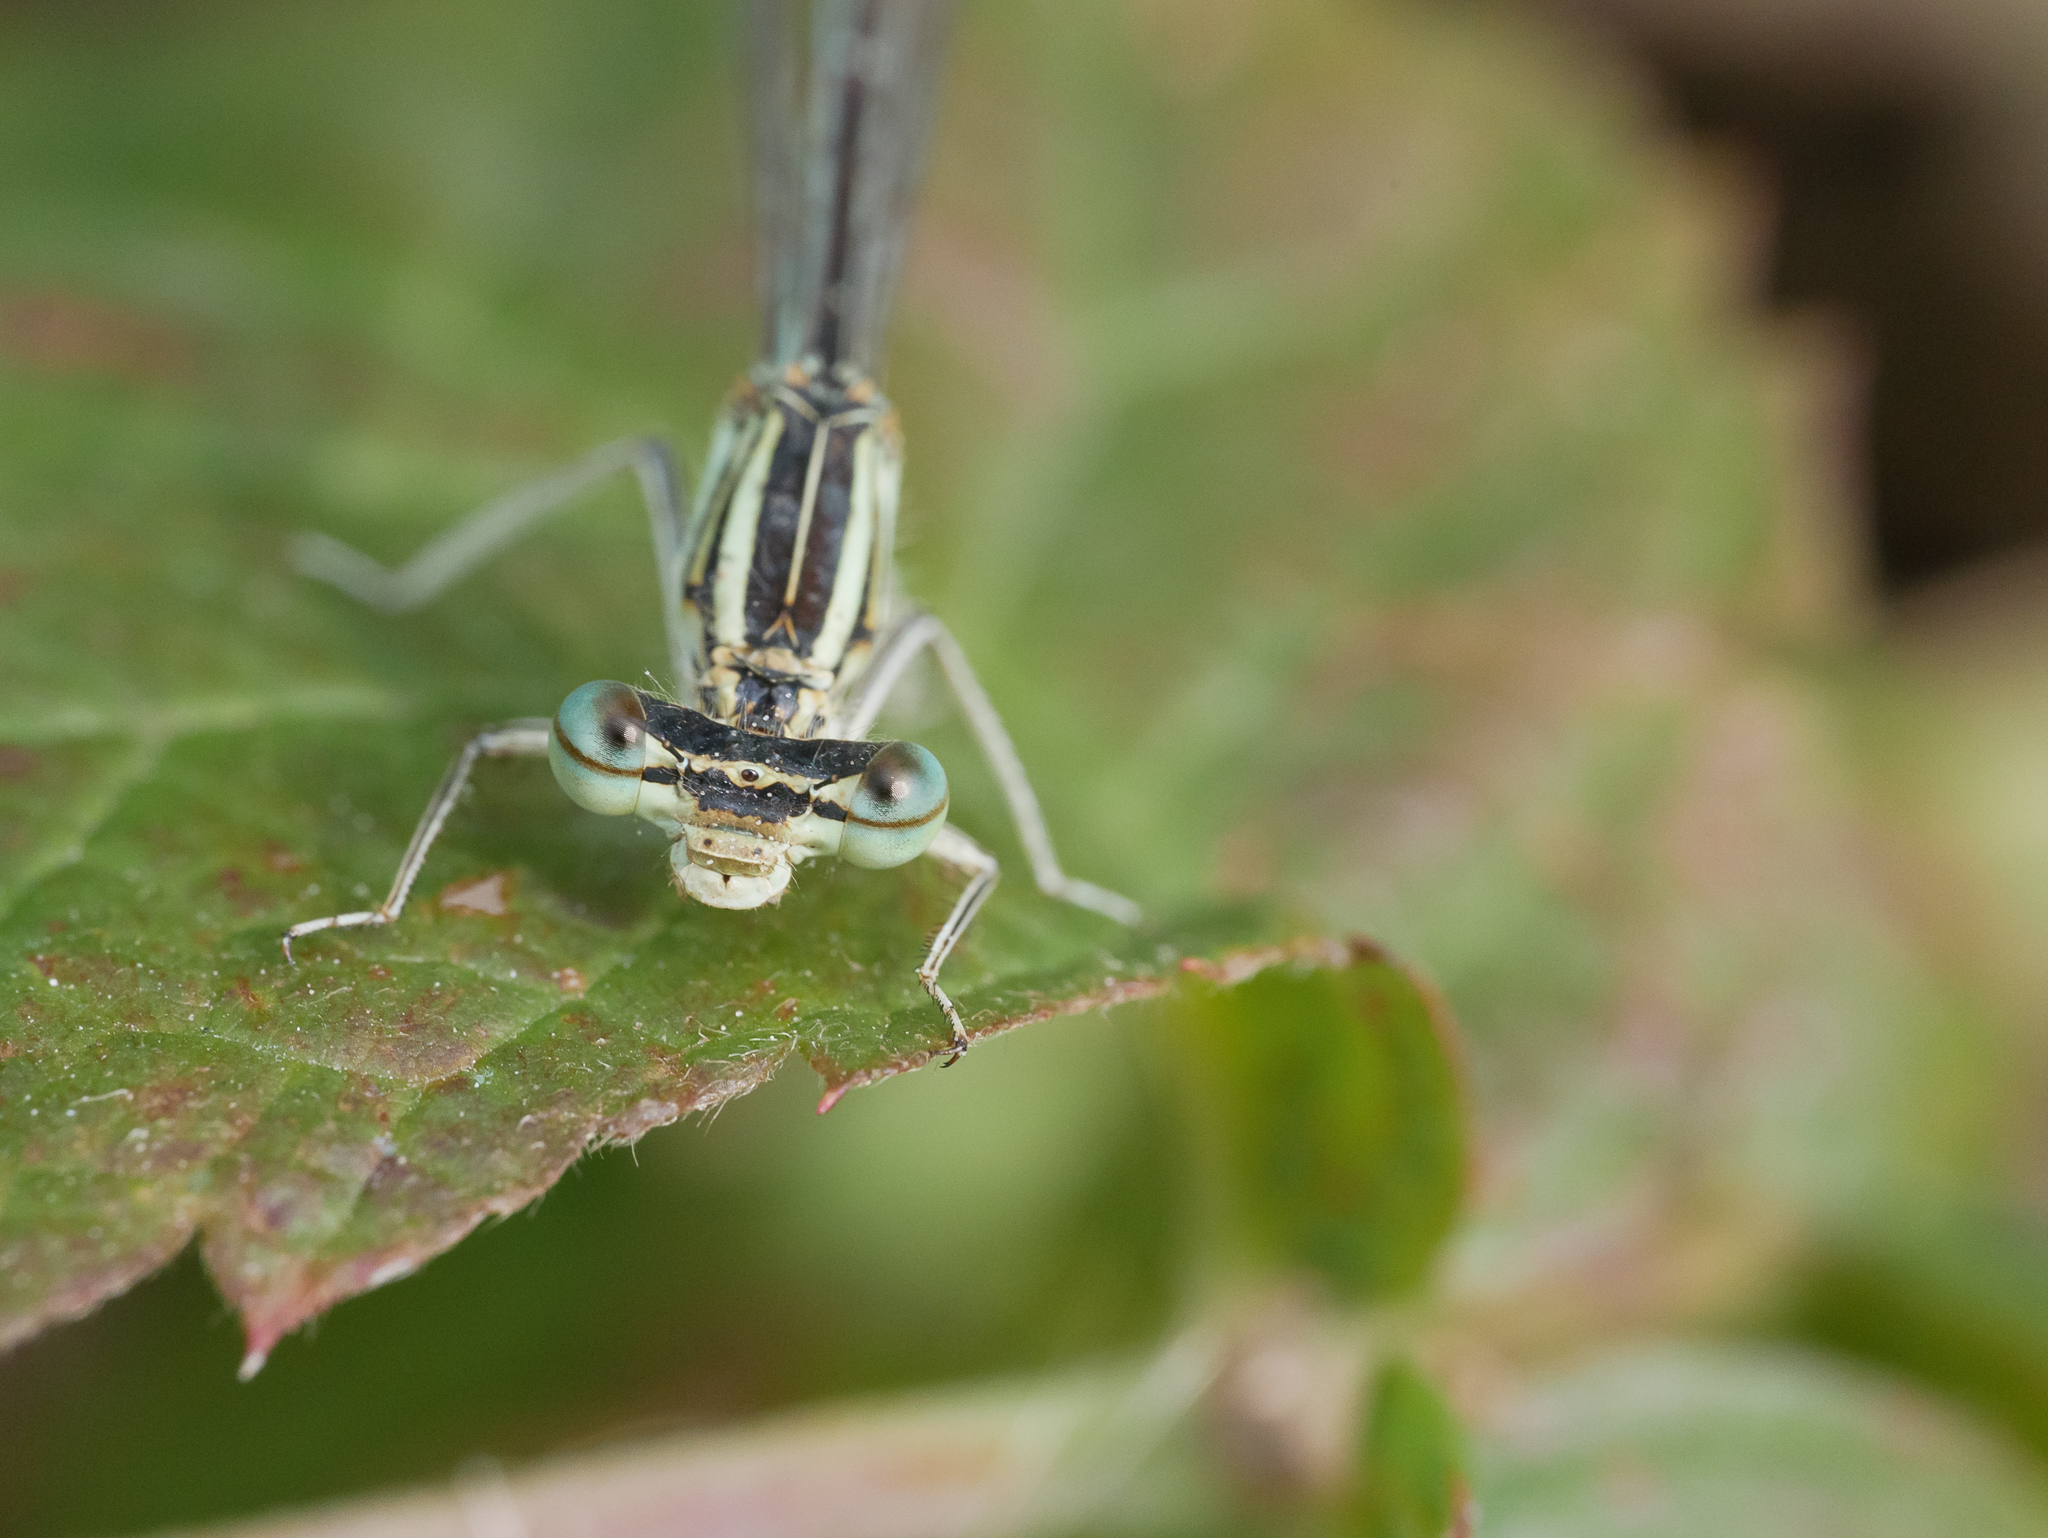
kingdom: Animalia
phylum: Arthropoda
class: Insecta
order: Odonata
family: Platycnemididae
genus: Platycnemis
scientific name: Platycnemis pennipes
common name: White-legged damselfly
